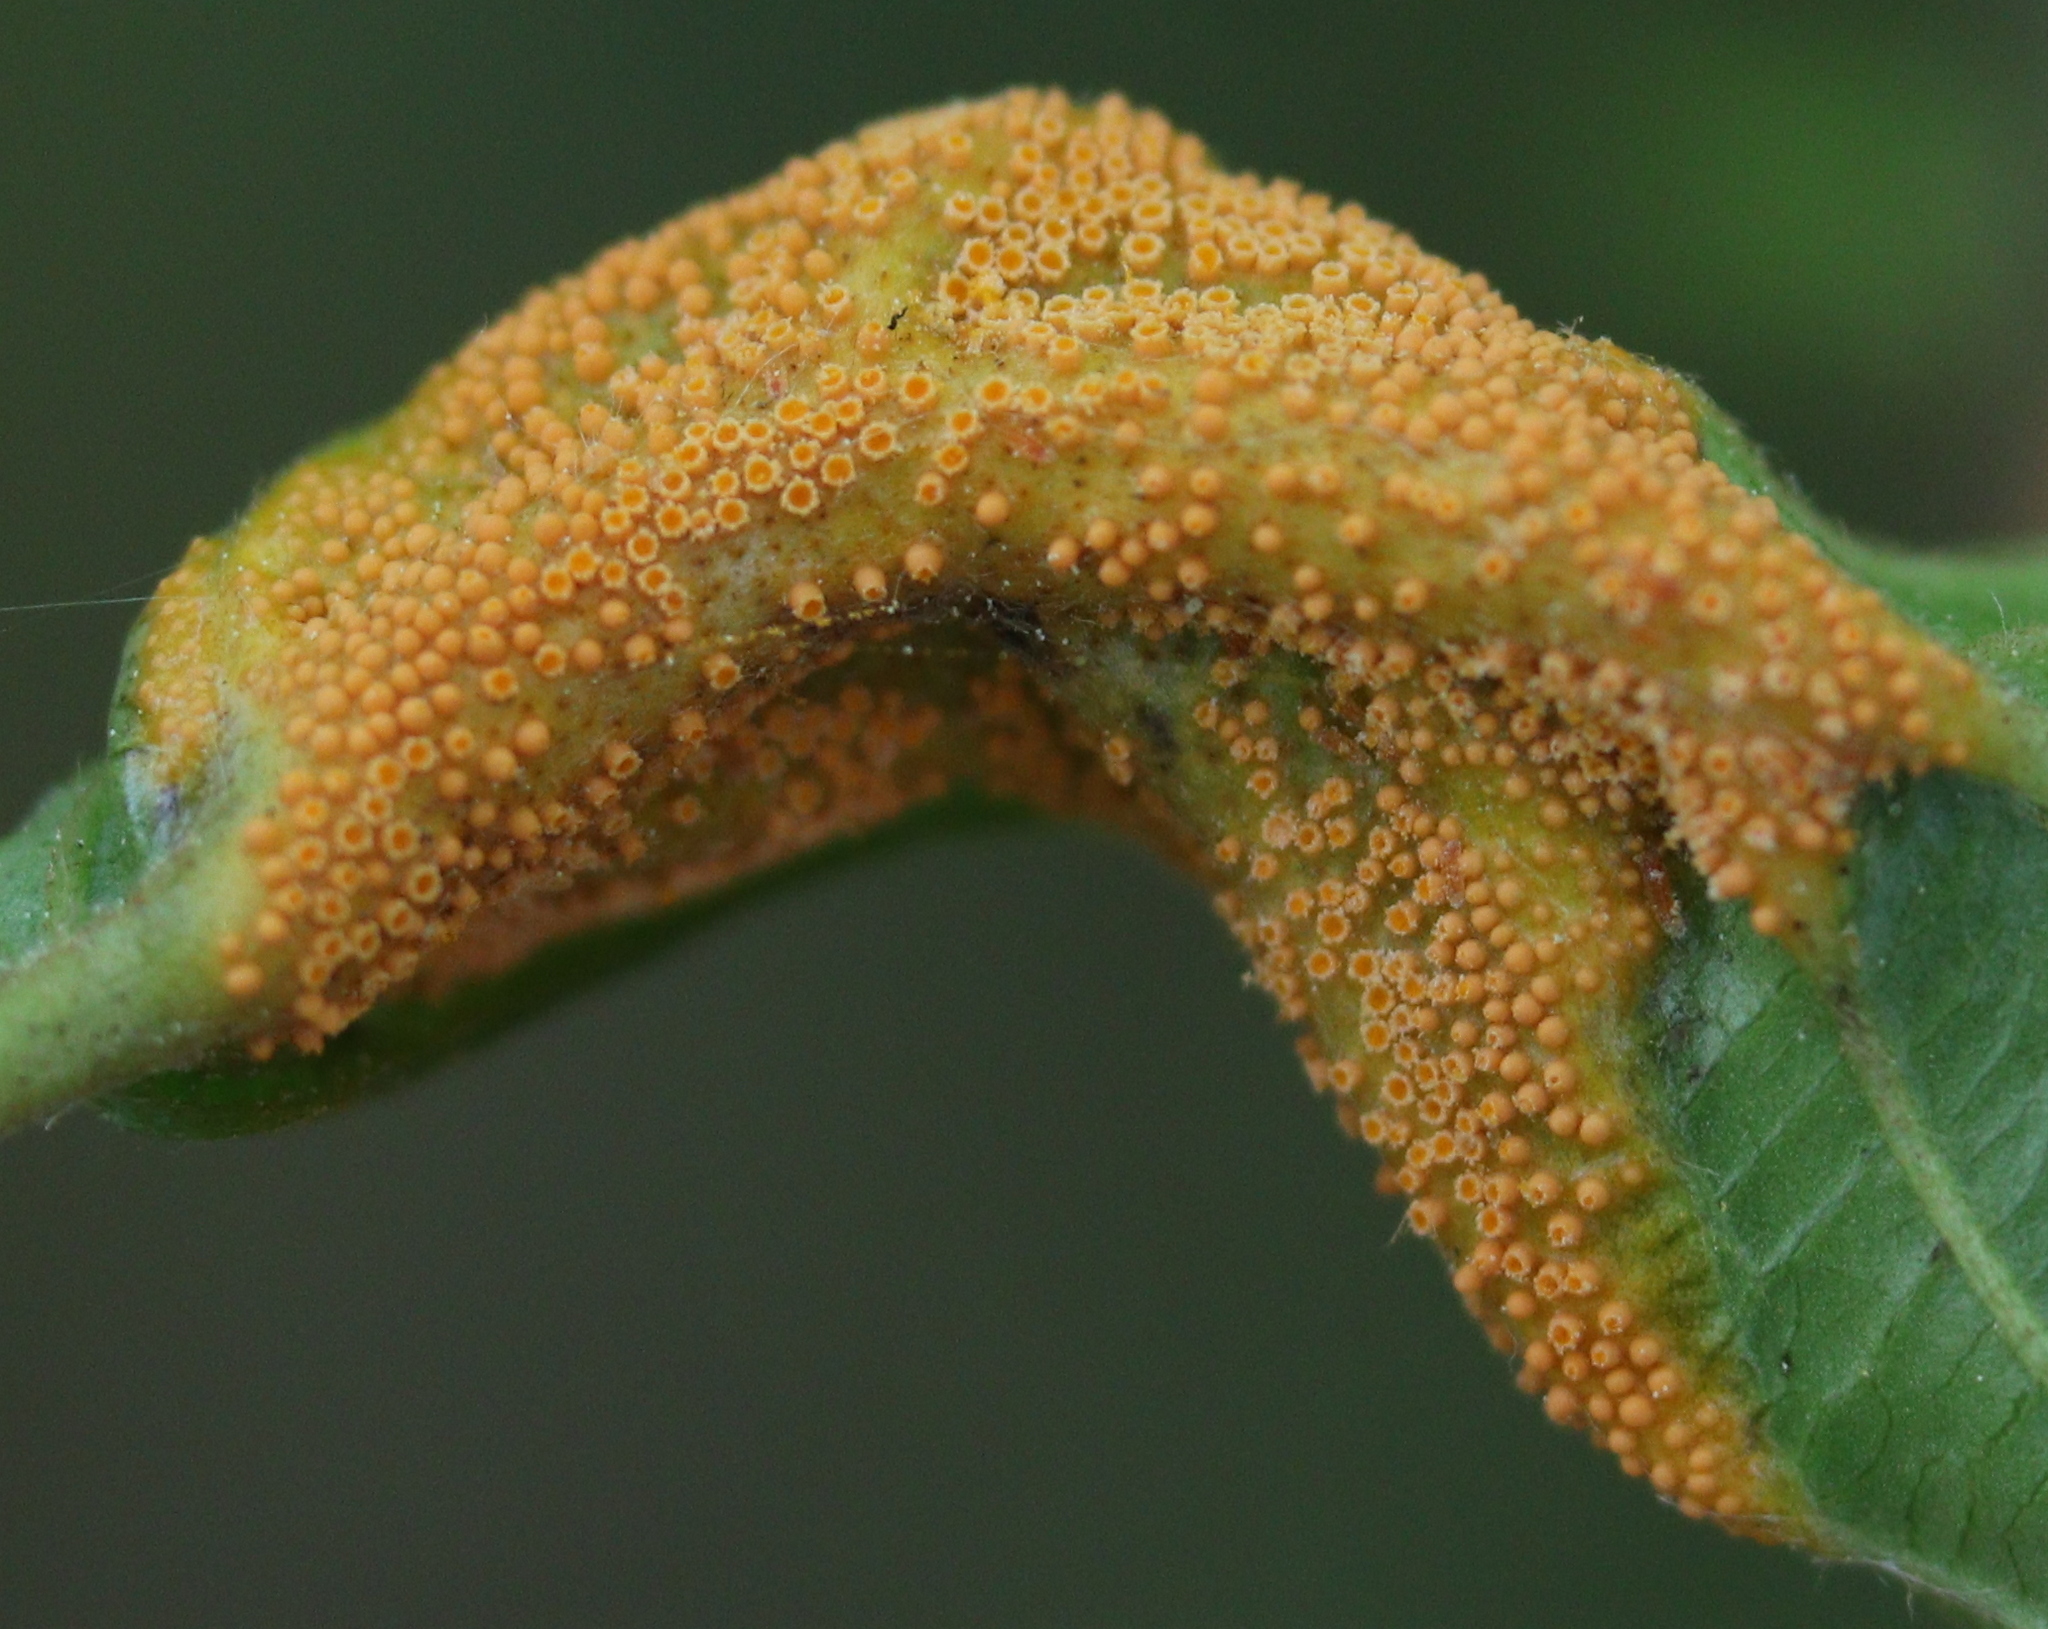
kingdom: Fungi
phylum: Basidiomycota
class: Pucciniomycetes
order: Pucciniales
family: Pucciniaceae
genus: Puccinia
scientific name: Puccinia coronata
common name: Crown rust
